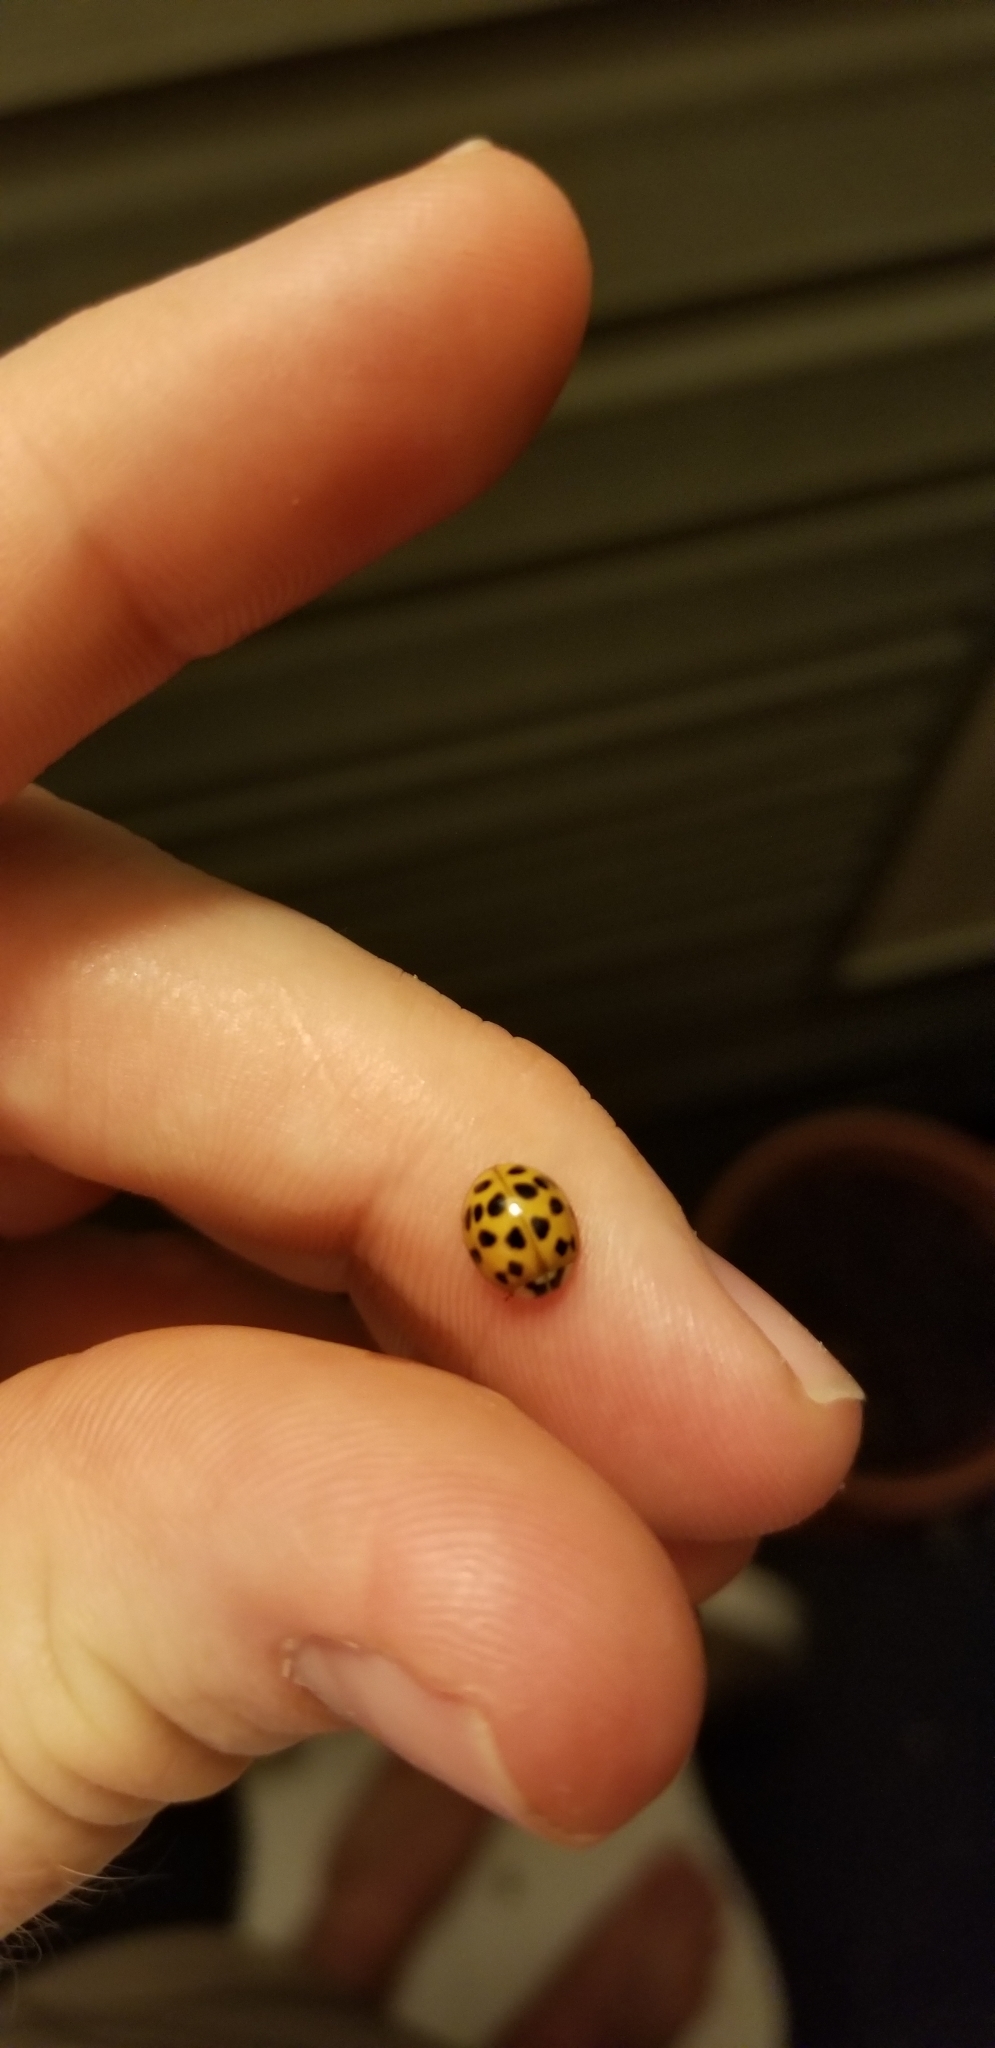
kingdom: Animalia
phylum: Arthropoda
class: Insecta
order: Coleoptera
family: Coccinellidae
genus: Harmonia
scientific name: Harmonia axyridis
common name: Harlequin ladybird
